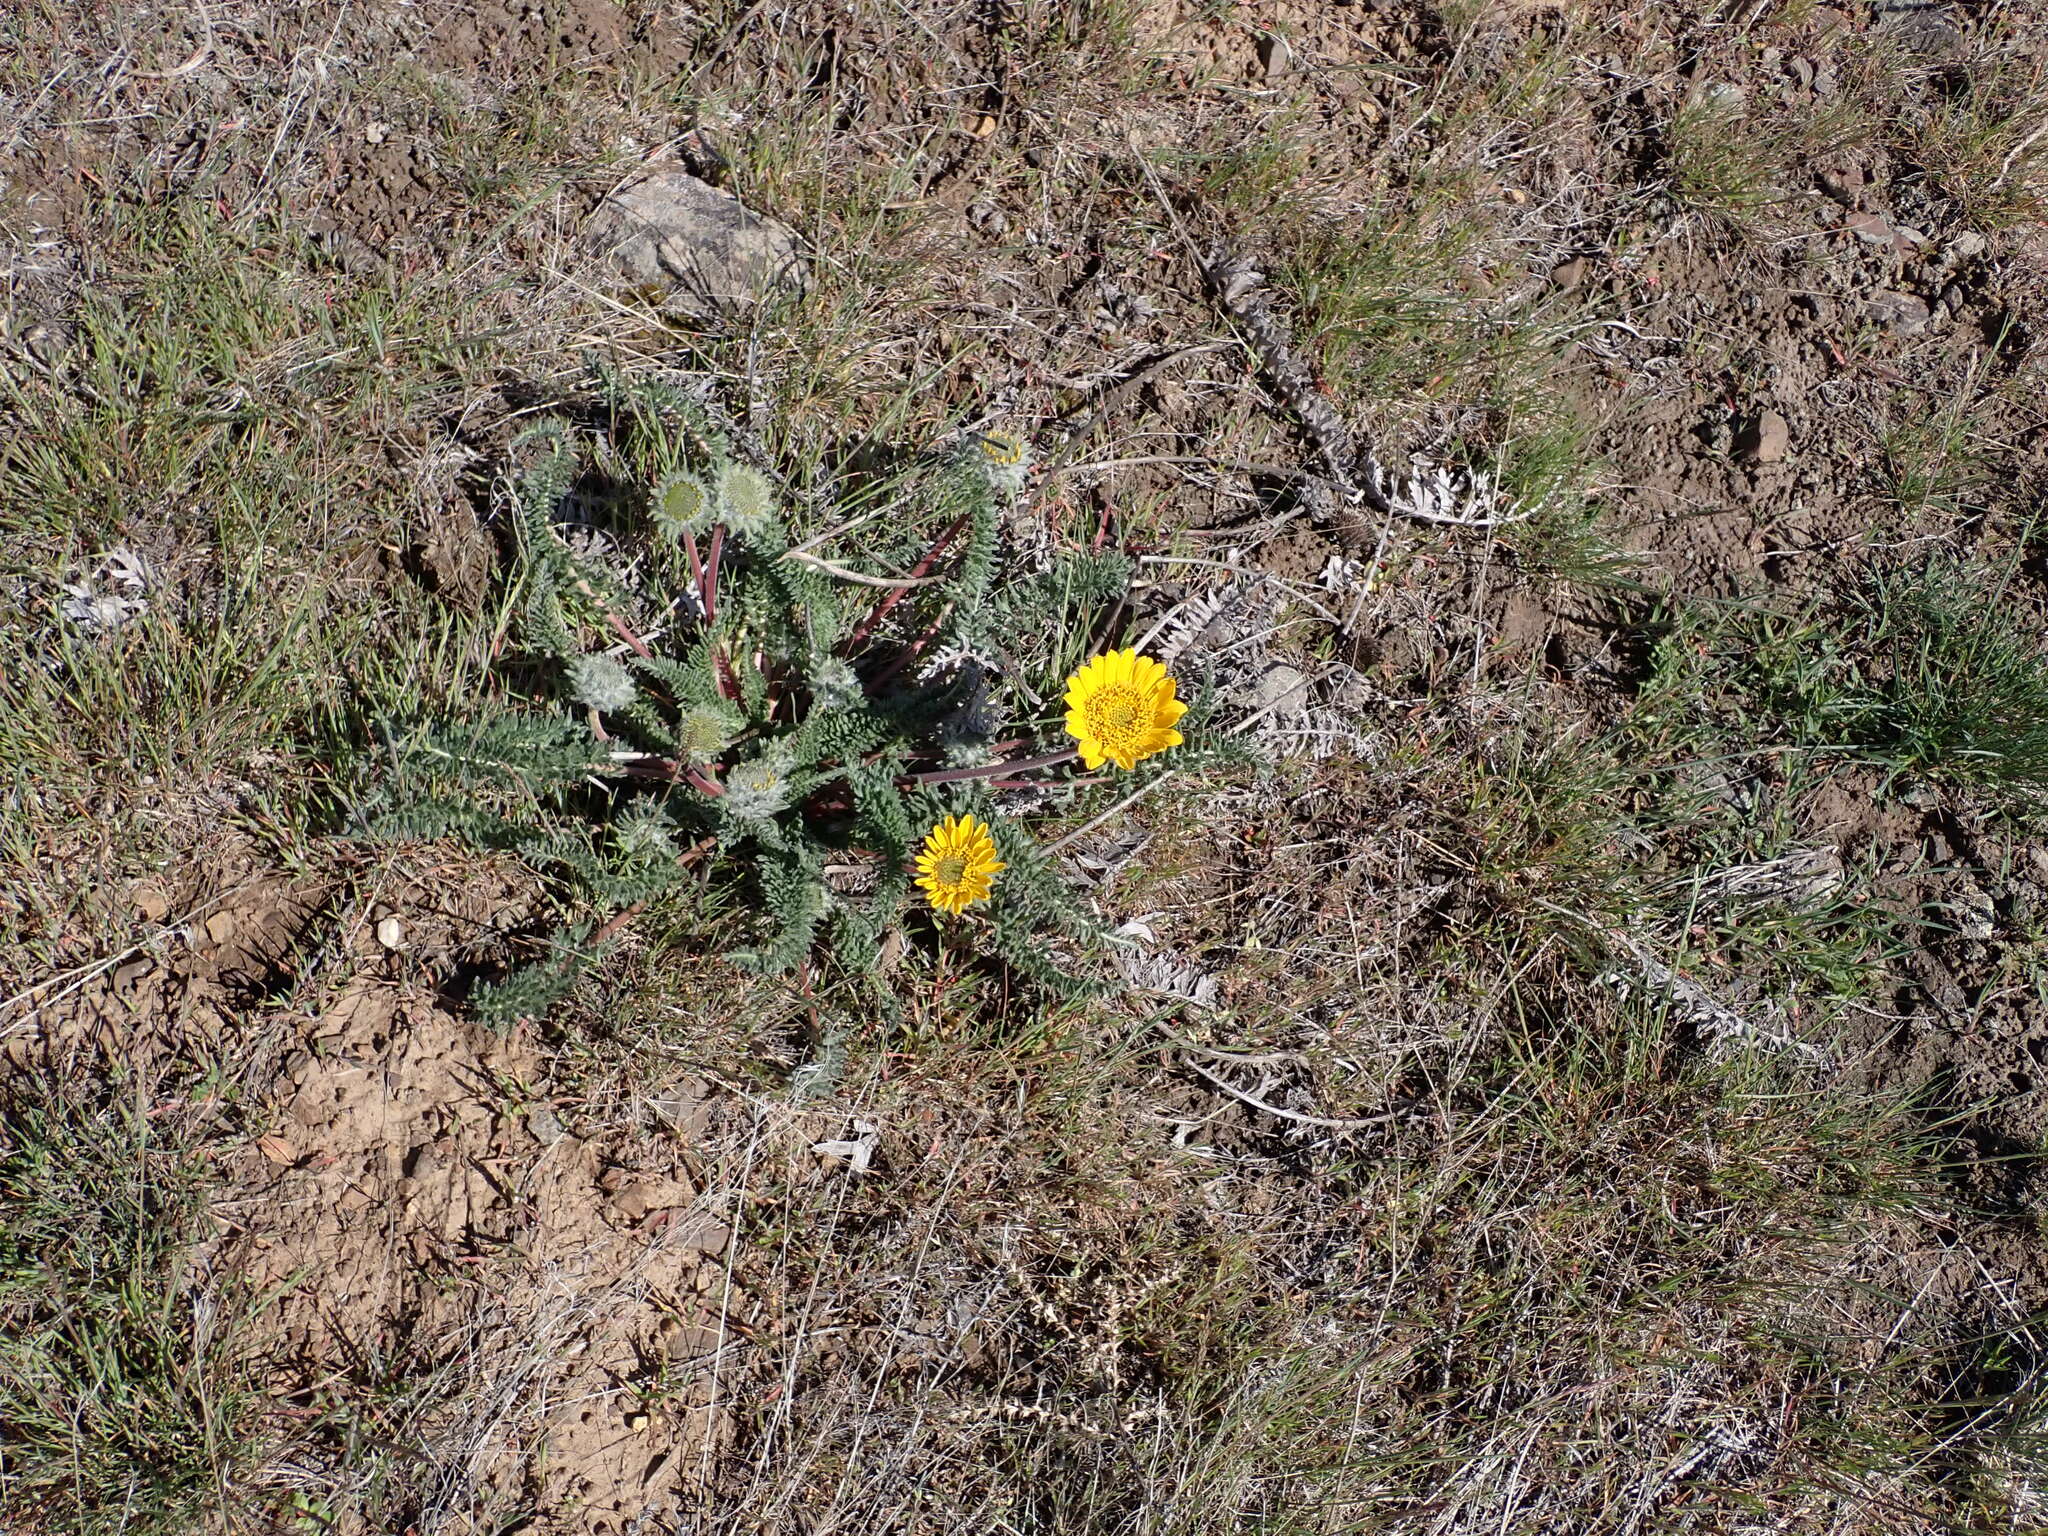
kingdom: Plantae
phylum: Tracheophyta
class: Magnoliopsida
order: Asterales
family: Asteraceae
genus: Balsamorhiza
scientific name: Balsamorhiza hookeri
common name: Hooker's balsamroot
